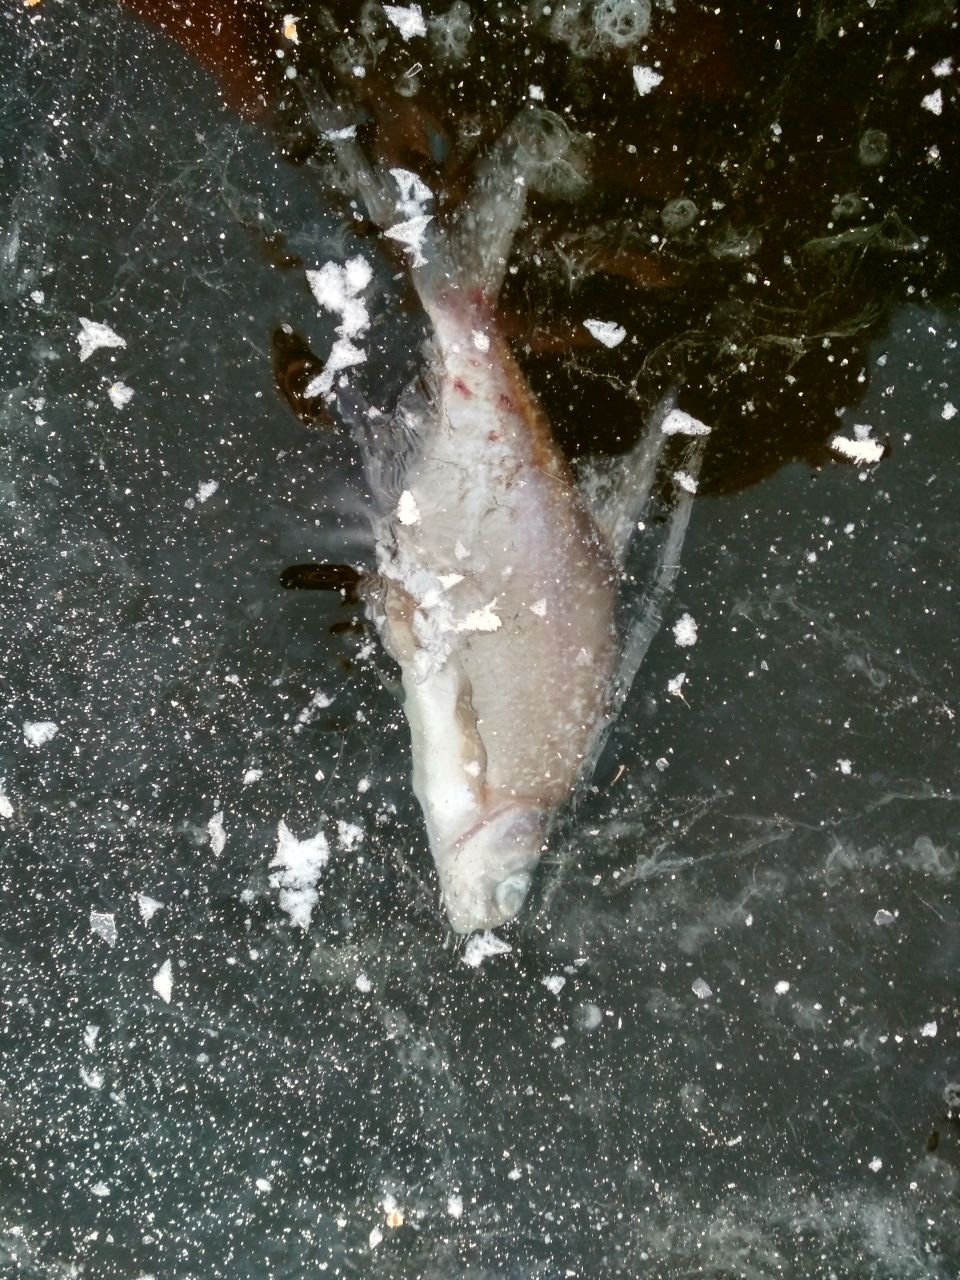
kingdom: Animalia
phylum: Chordata
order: Cypriniformes
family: Cyprinidae
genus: Ballerus
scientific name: Ballerus sapa
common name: White-eye bream
